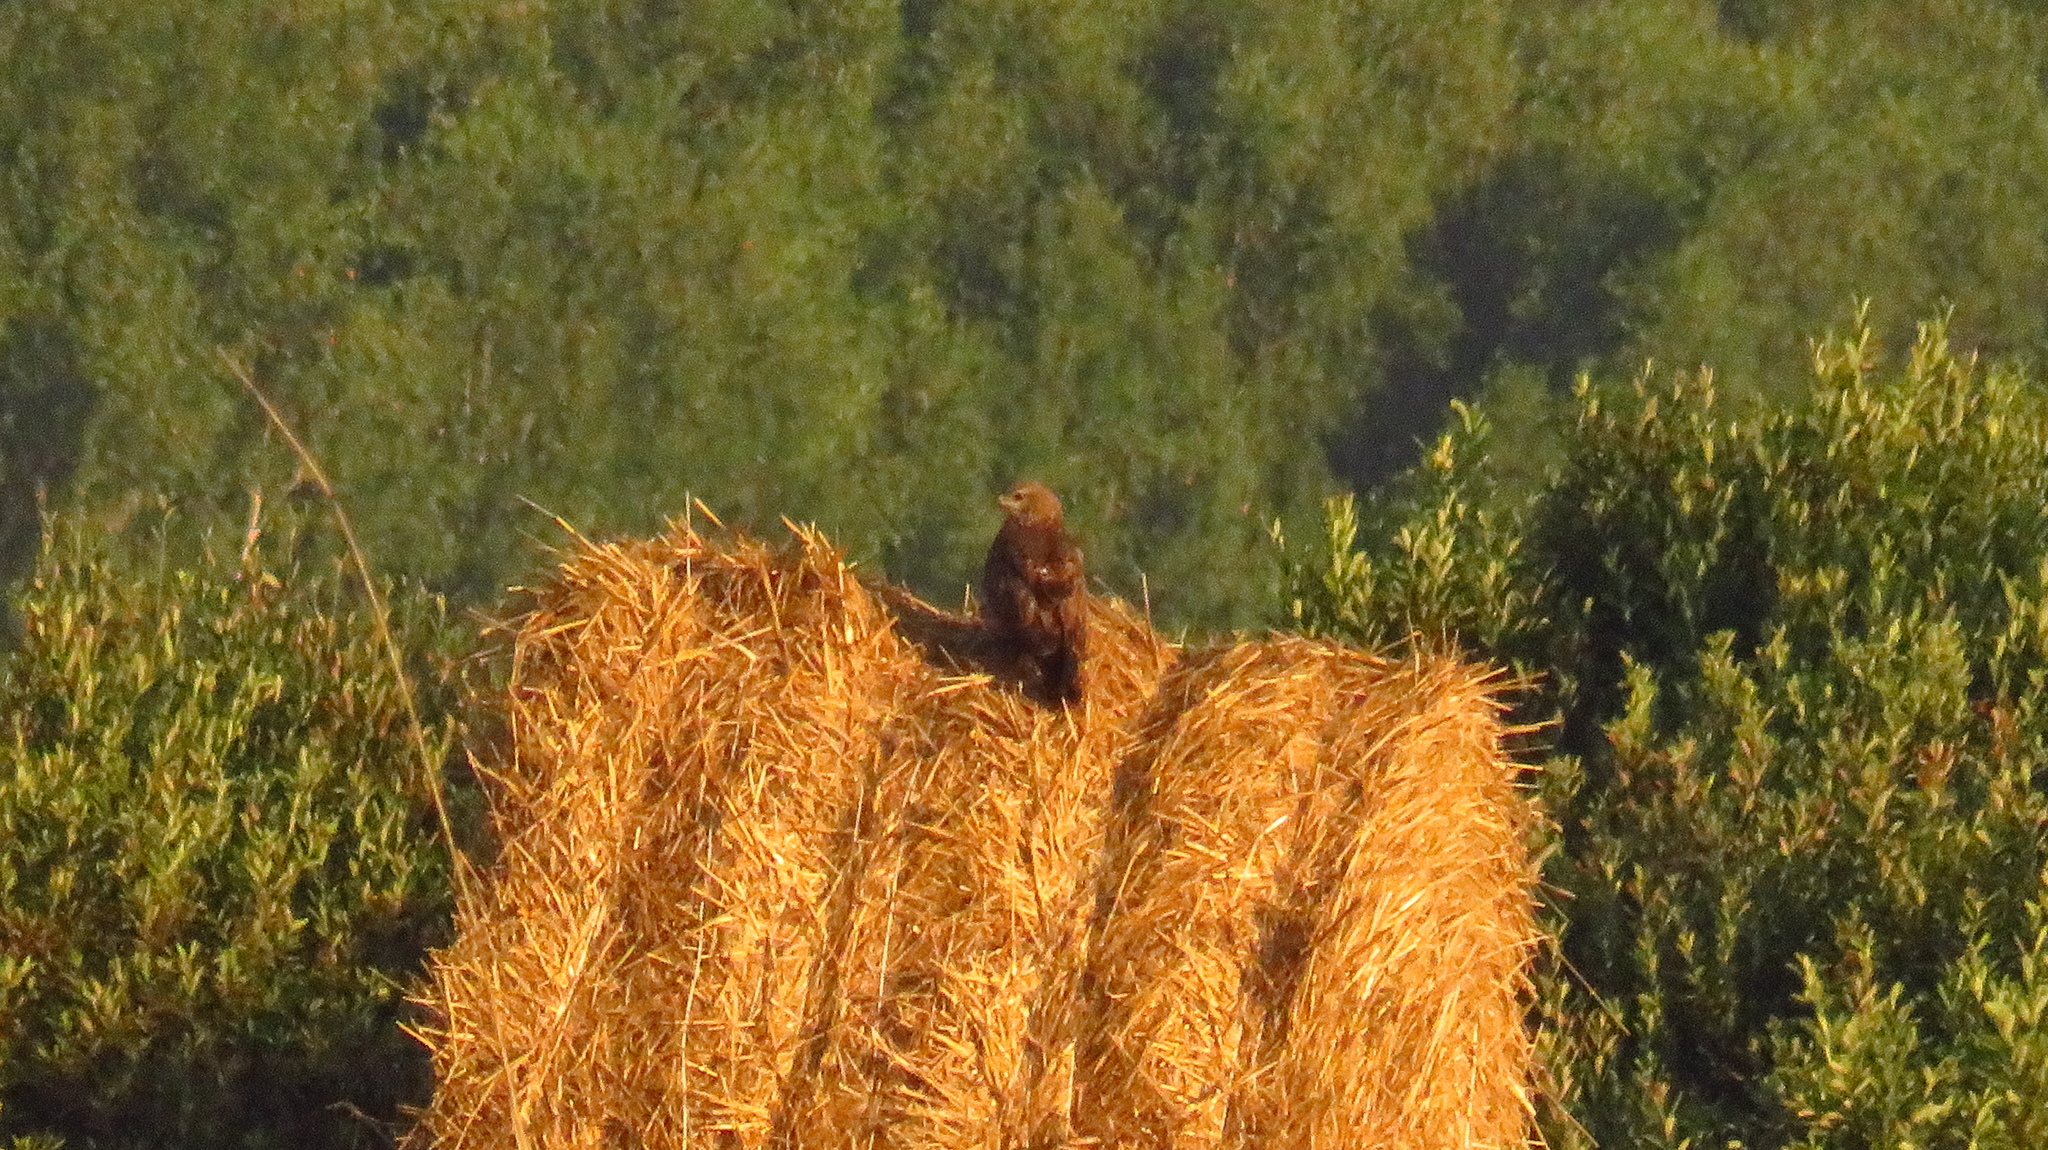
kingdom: Animalia
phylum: Chordata
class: Aves
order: Accipitriformes
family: Accipitridae
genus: Buteo
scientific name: Buteo buteo
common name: Common buzzard
